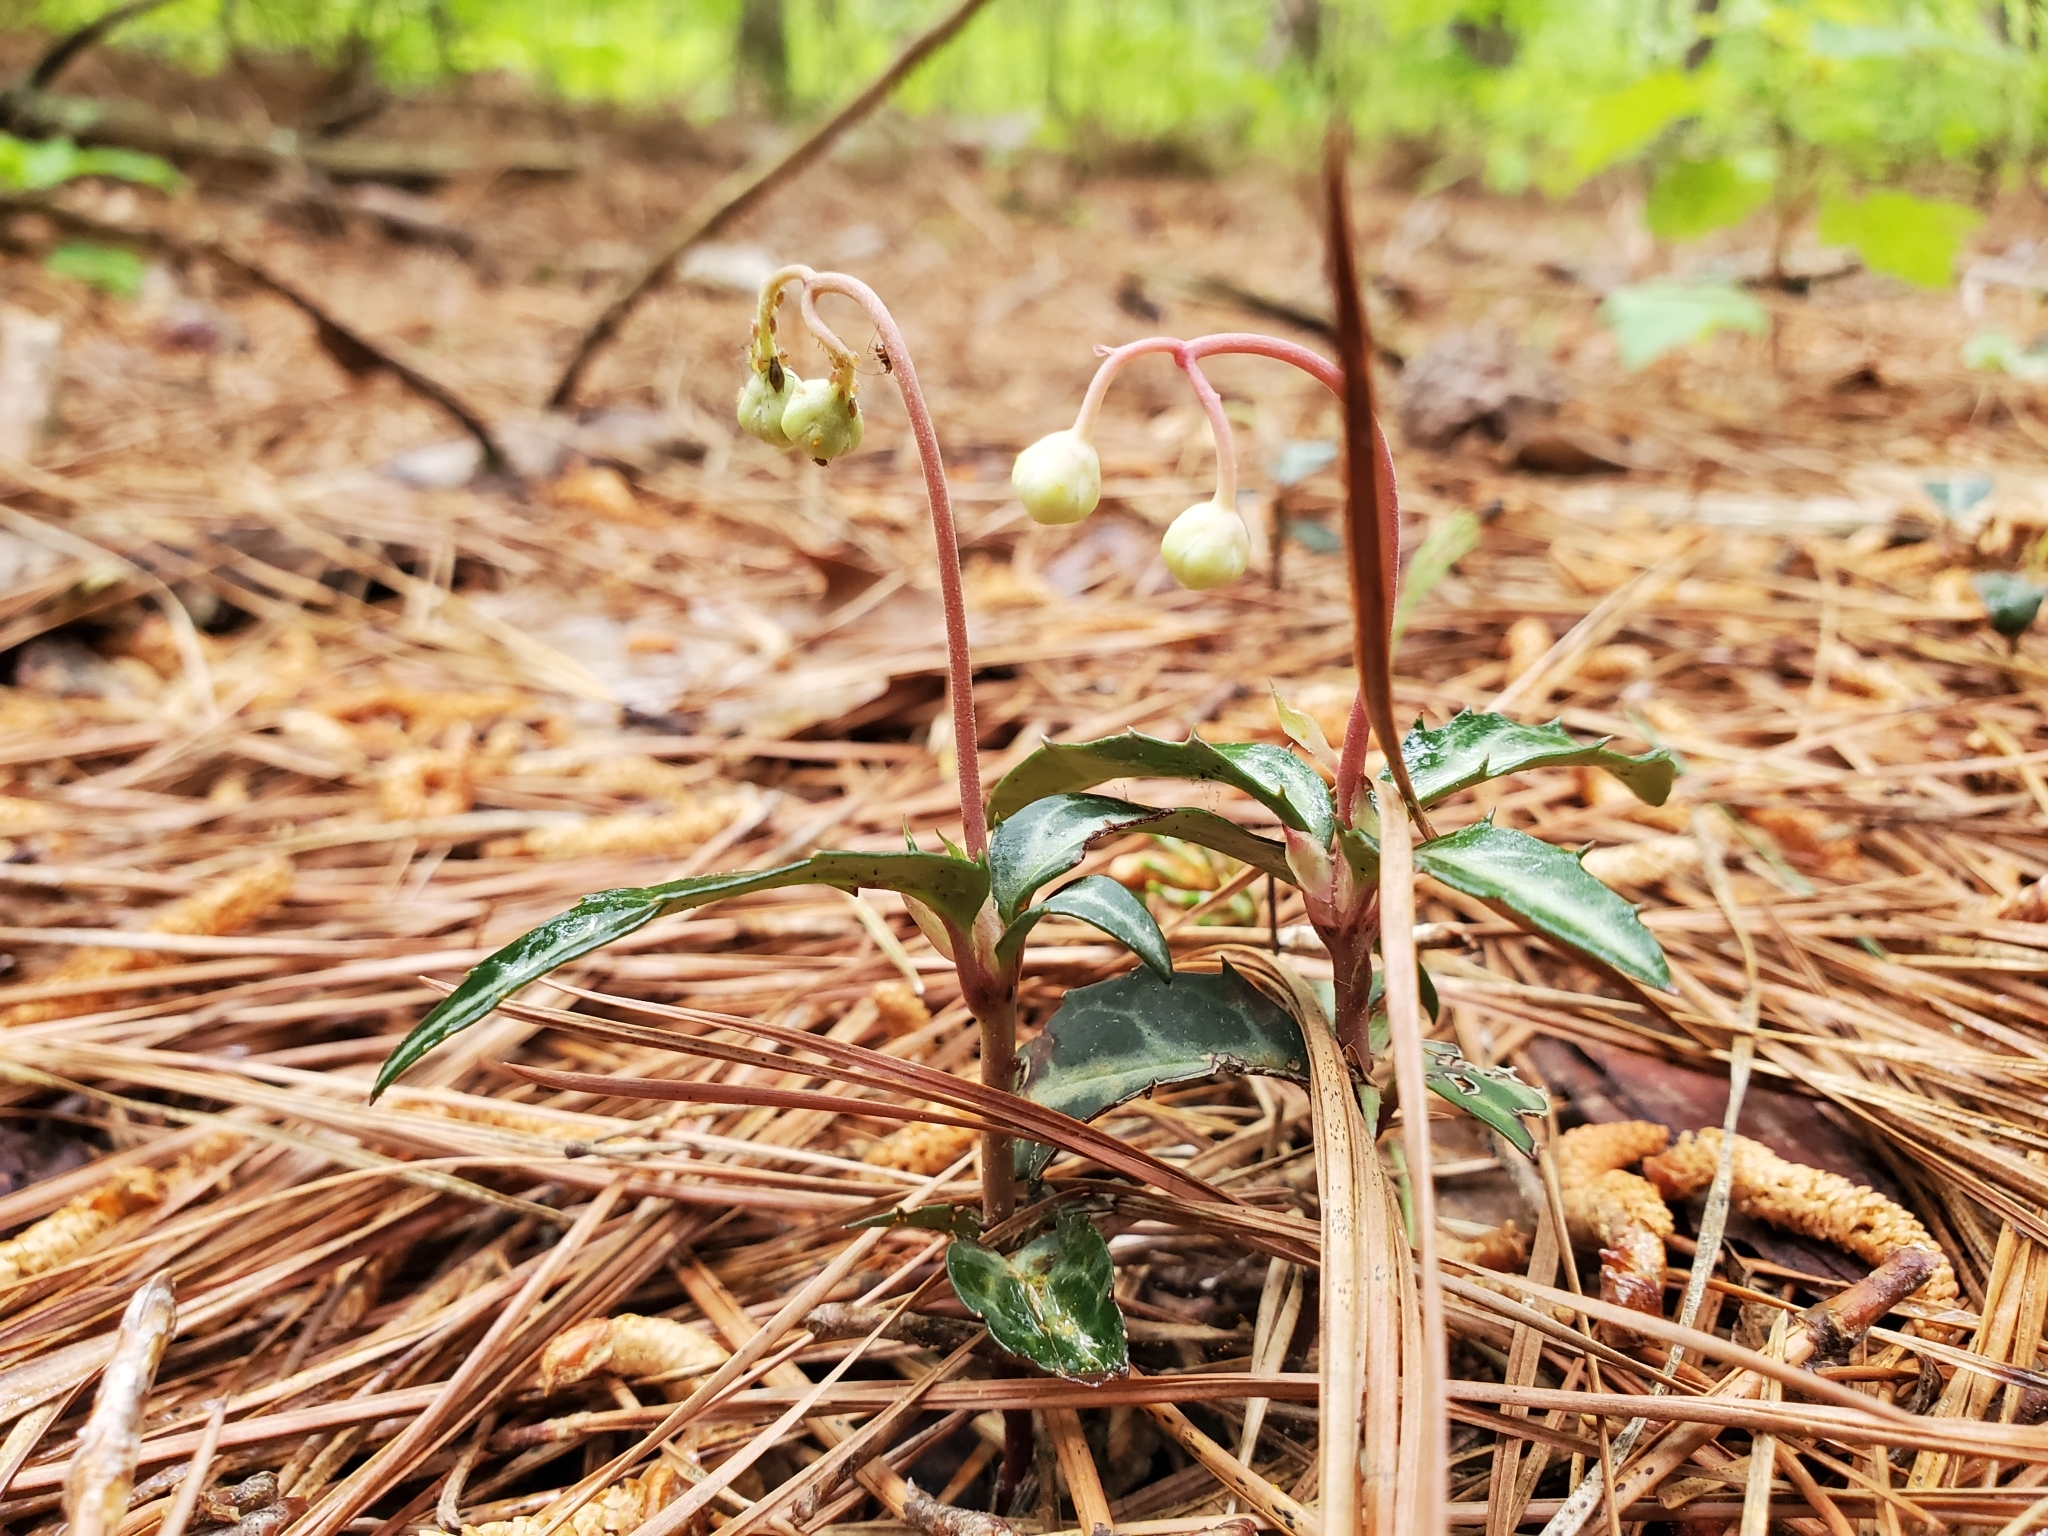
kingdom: Plantae
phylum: Tracheophyta
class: Magnoliopsida
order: Ericales
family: Ericaceae
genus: Chimaphila
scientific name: Chimaphila maculata
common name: Spotted pipsissewa
